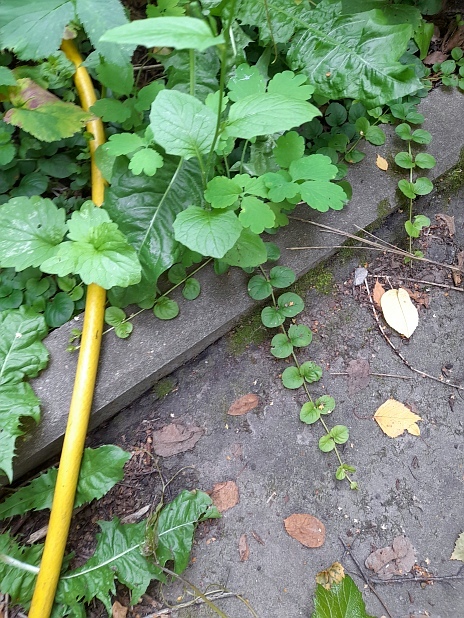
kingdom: Plantae
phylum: Tracheophyta
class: Magnoliopsida
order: Ericales
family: Primulaceae
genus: Lysimachia
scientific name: Lysimachia nummularia
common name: Moneywort
